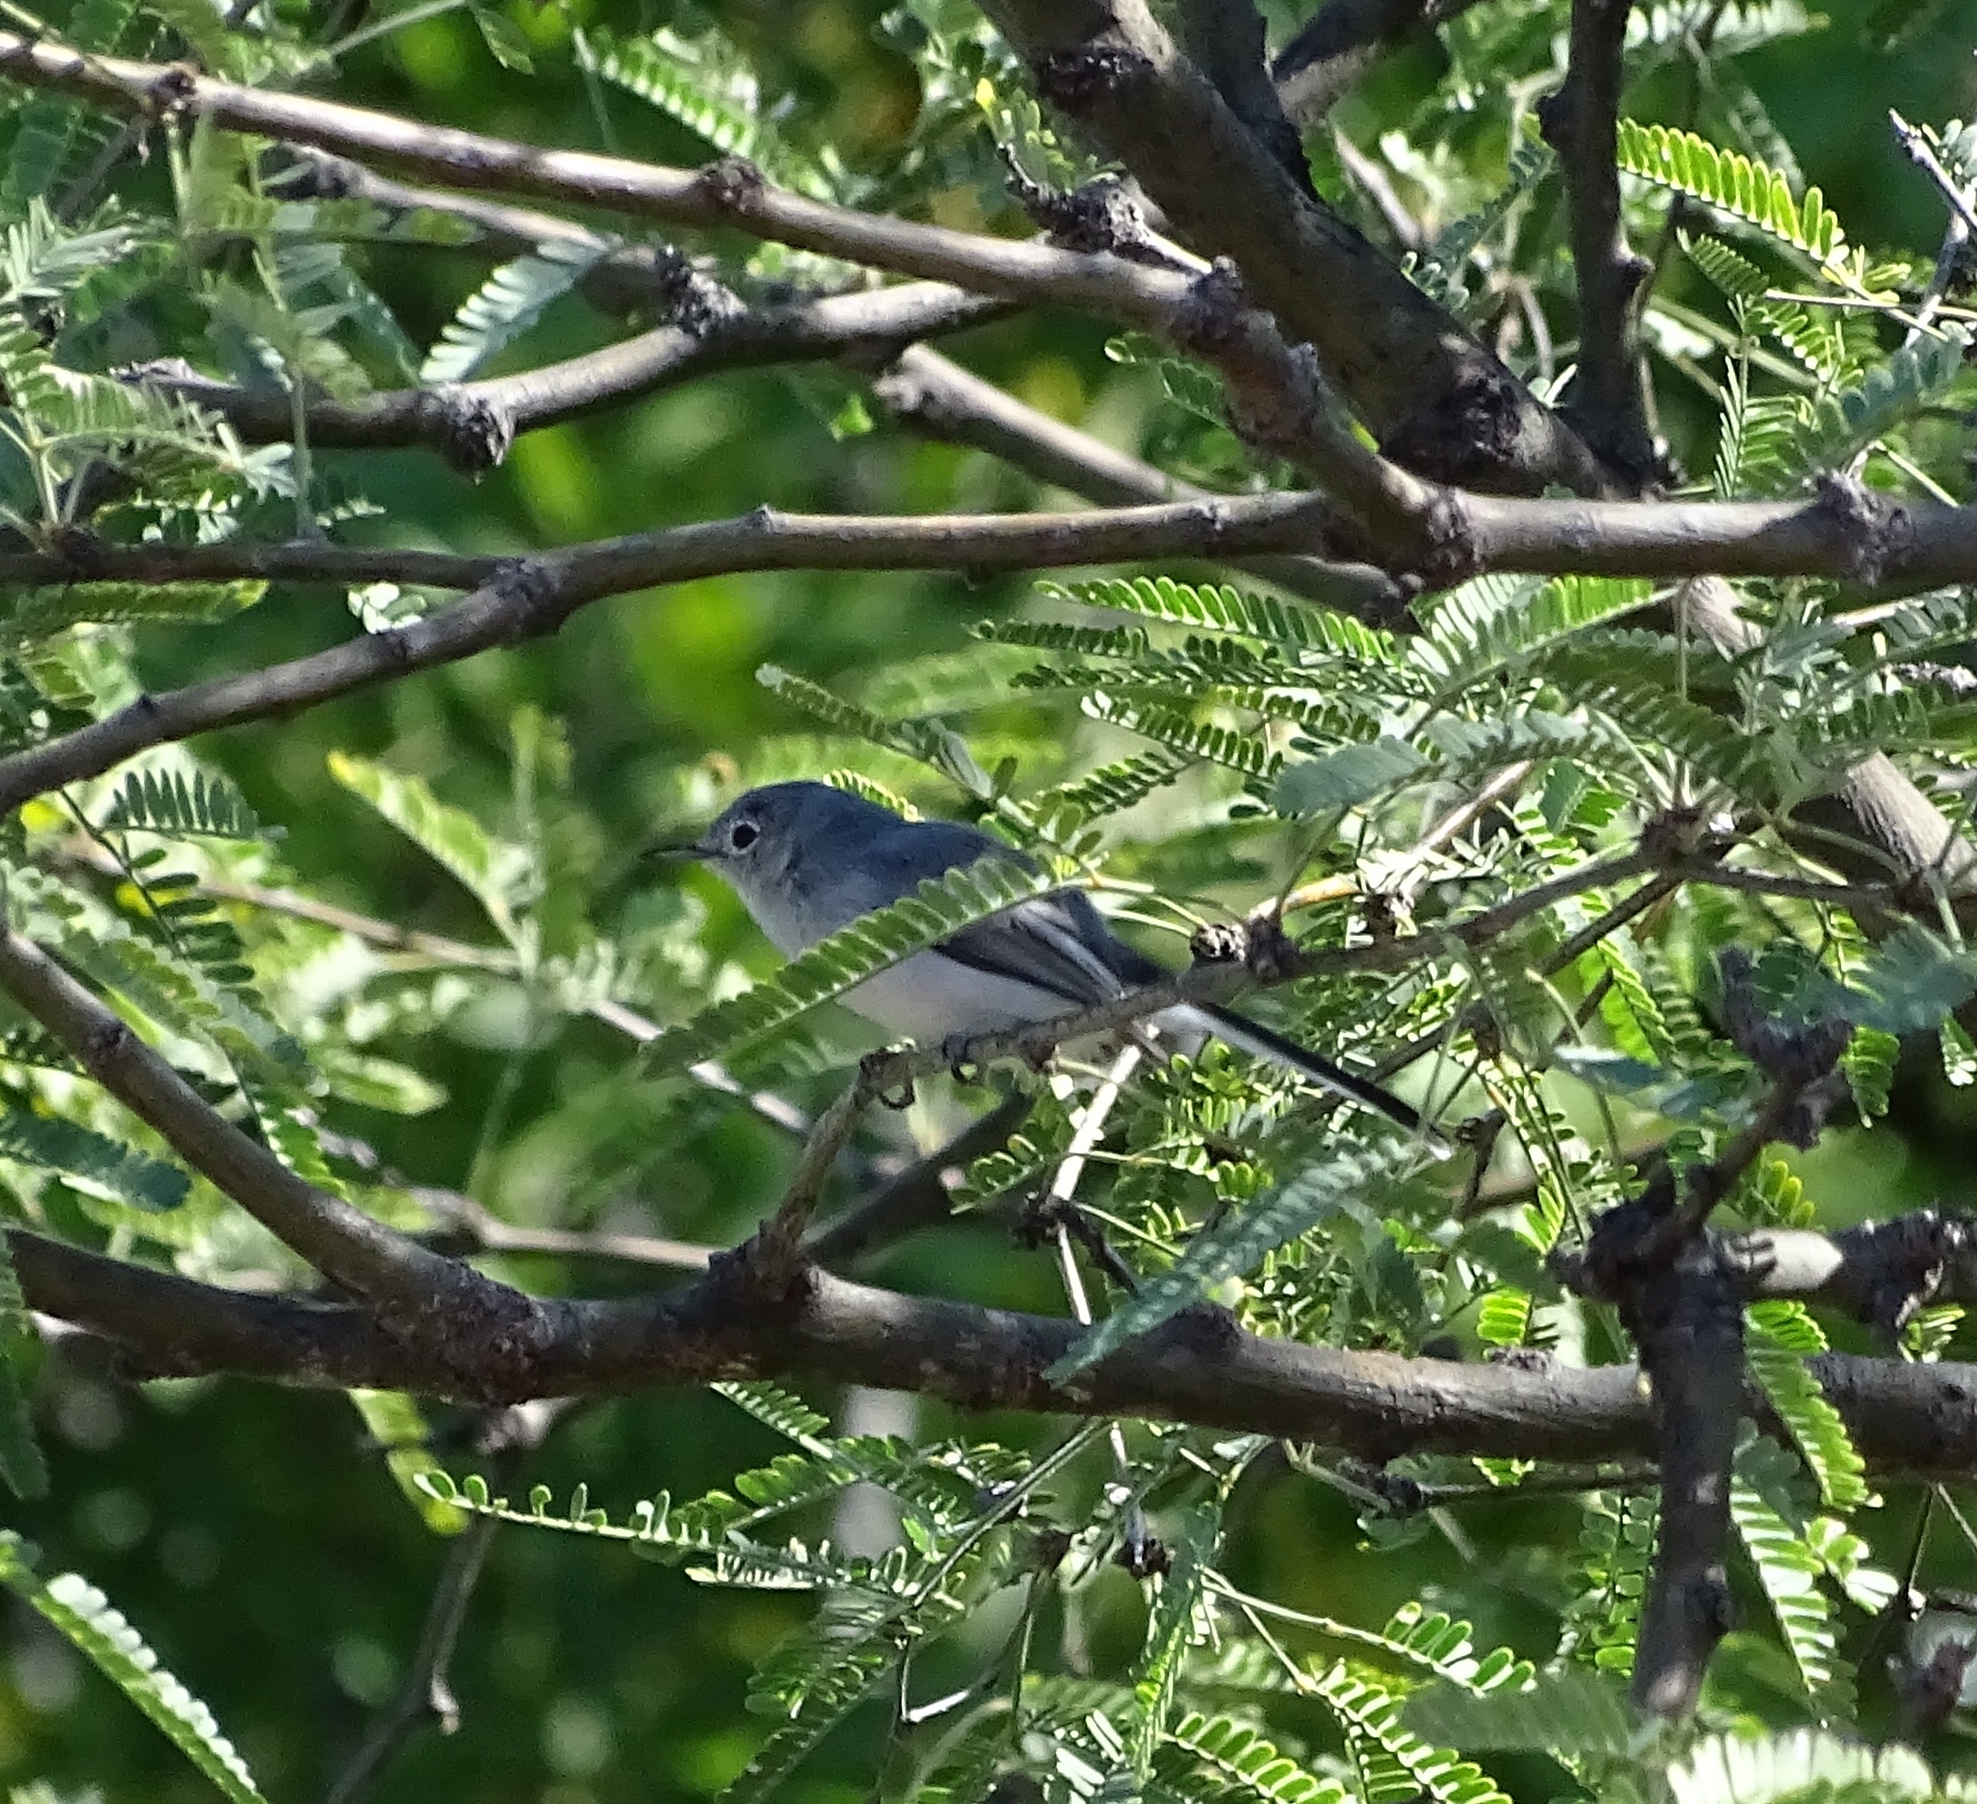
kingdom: Animalia
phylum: Chordata
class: Aves
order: Passeriformes
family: Polioptilidae
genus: Polioptila
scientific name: Polioptila caerulea
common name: Blue-gray gnatcatcher
